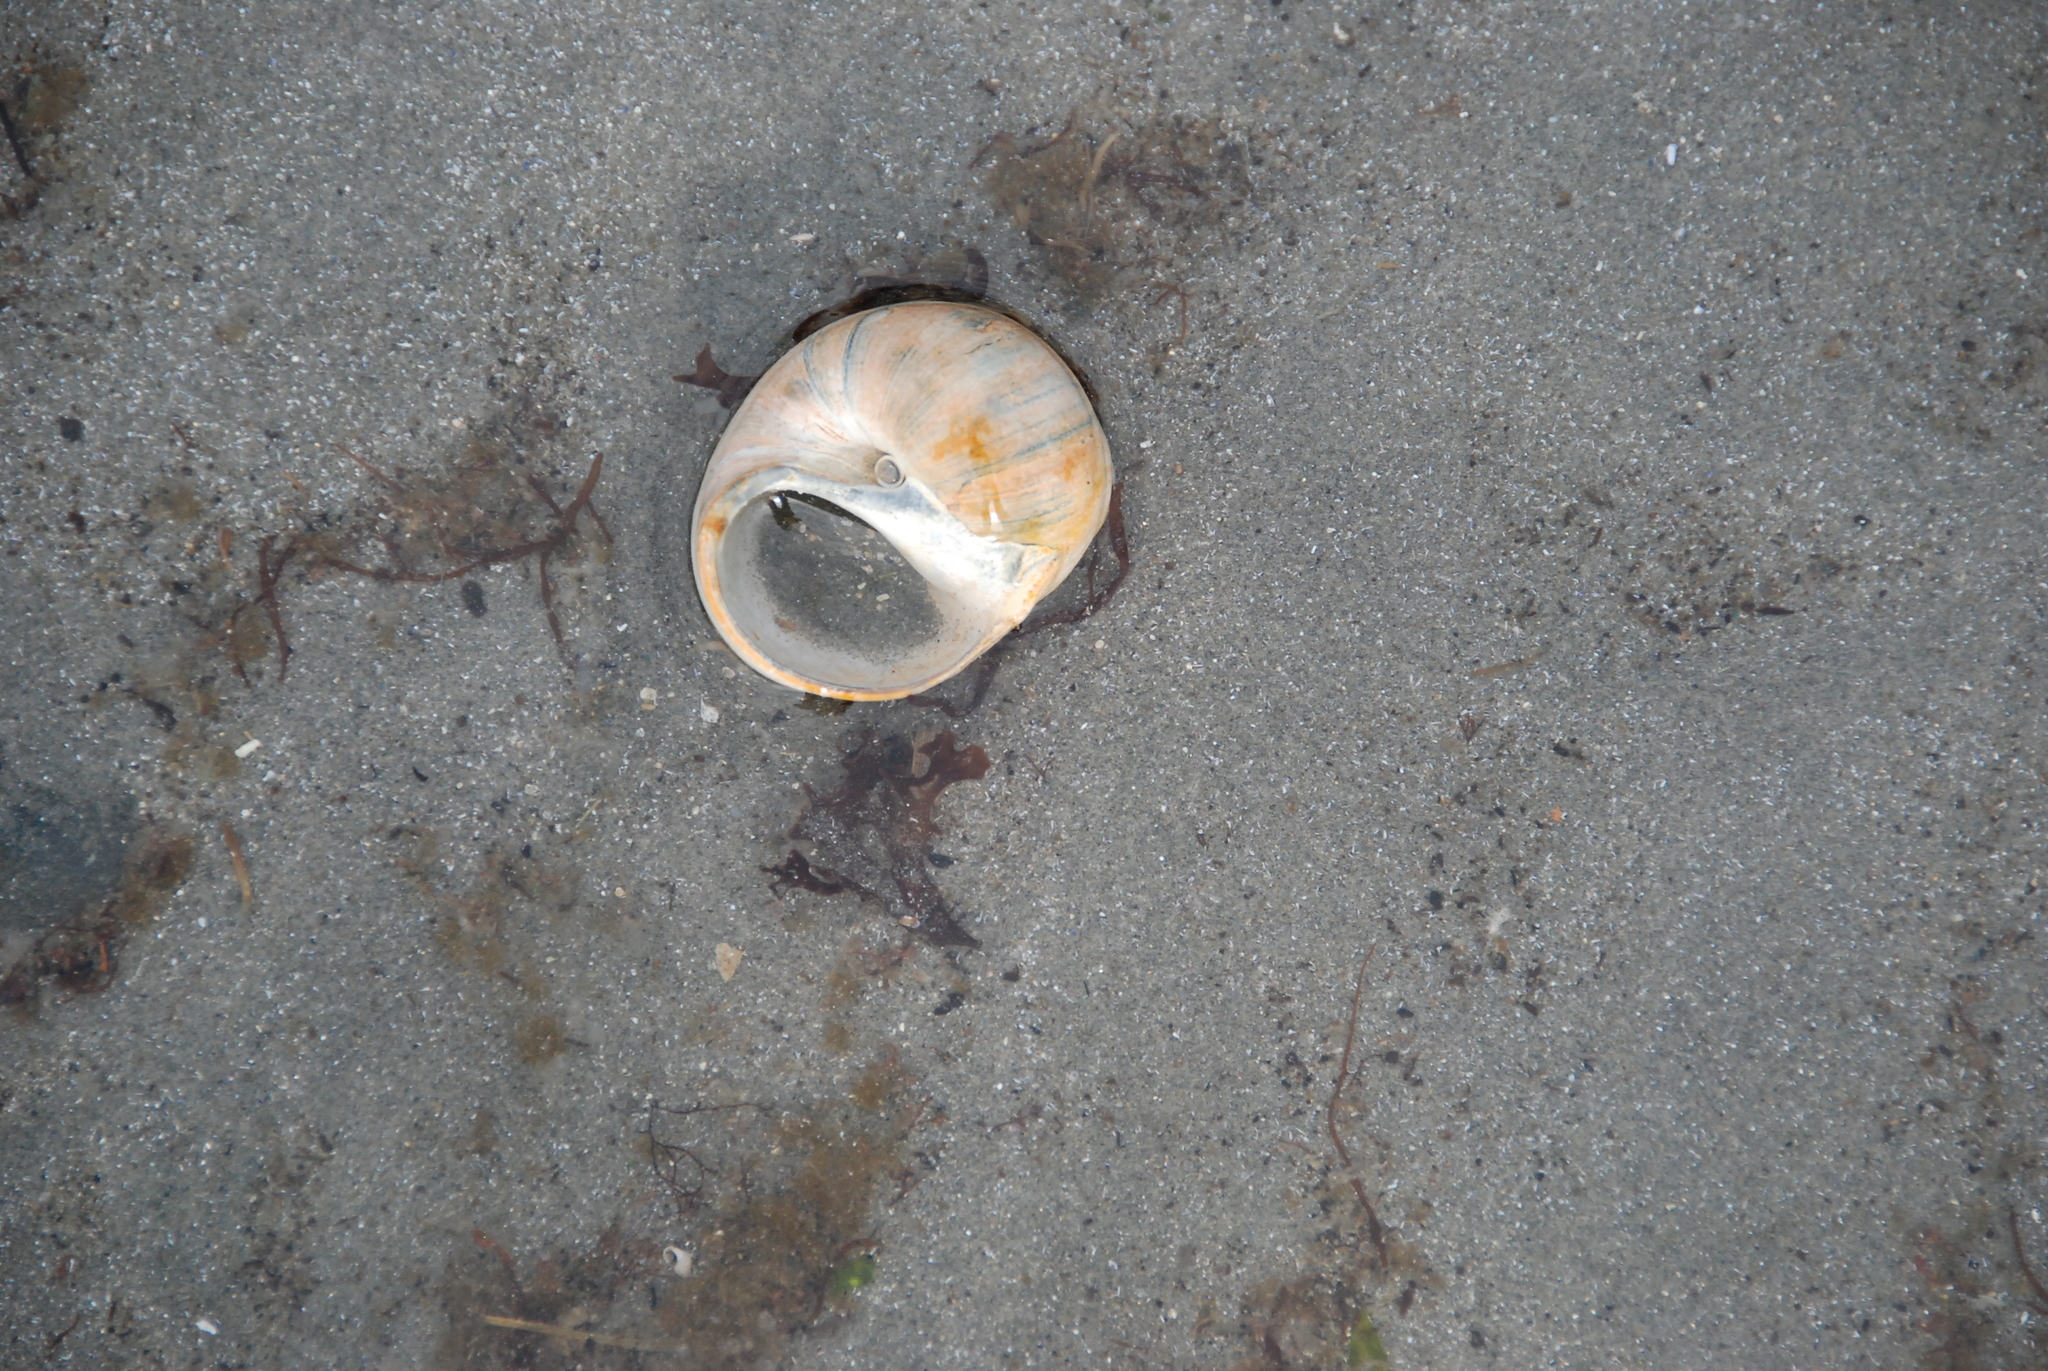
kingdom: Animalia
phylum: Mollusca
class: Gastropoda
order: Littorinimorpha
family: Naticidae
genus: Euspira
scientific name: Euspira heros
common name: Common northern moonsnail
